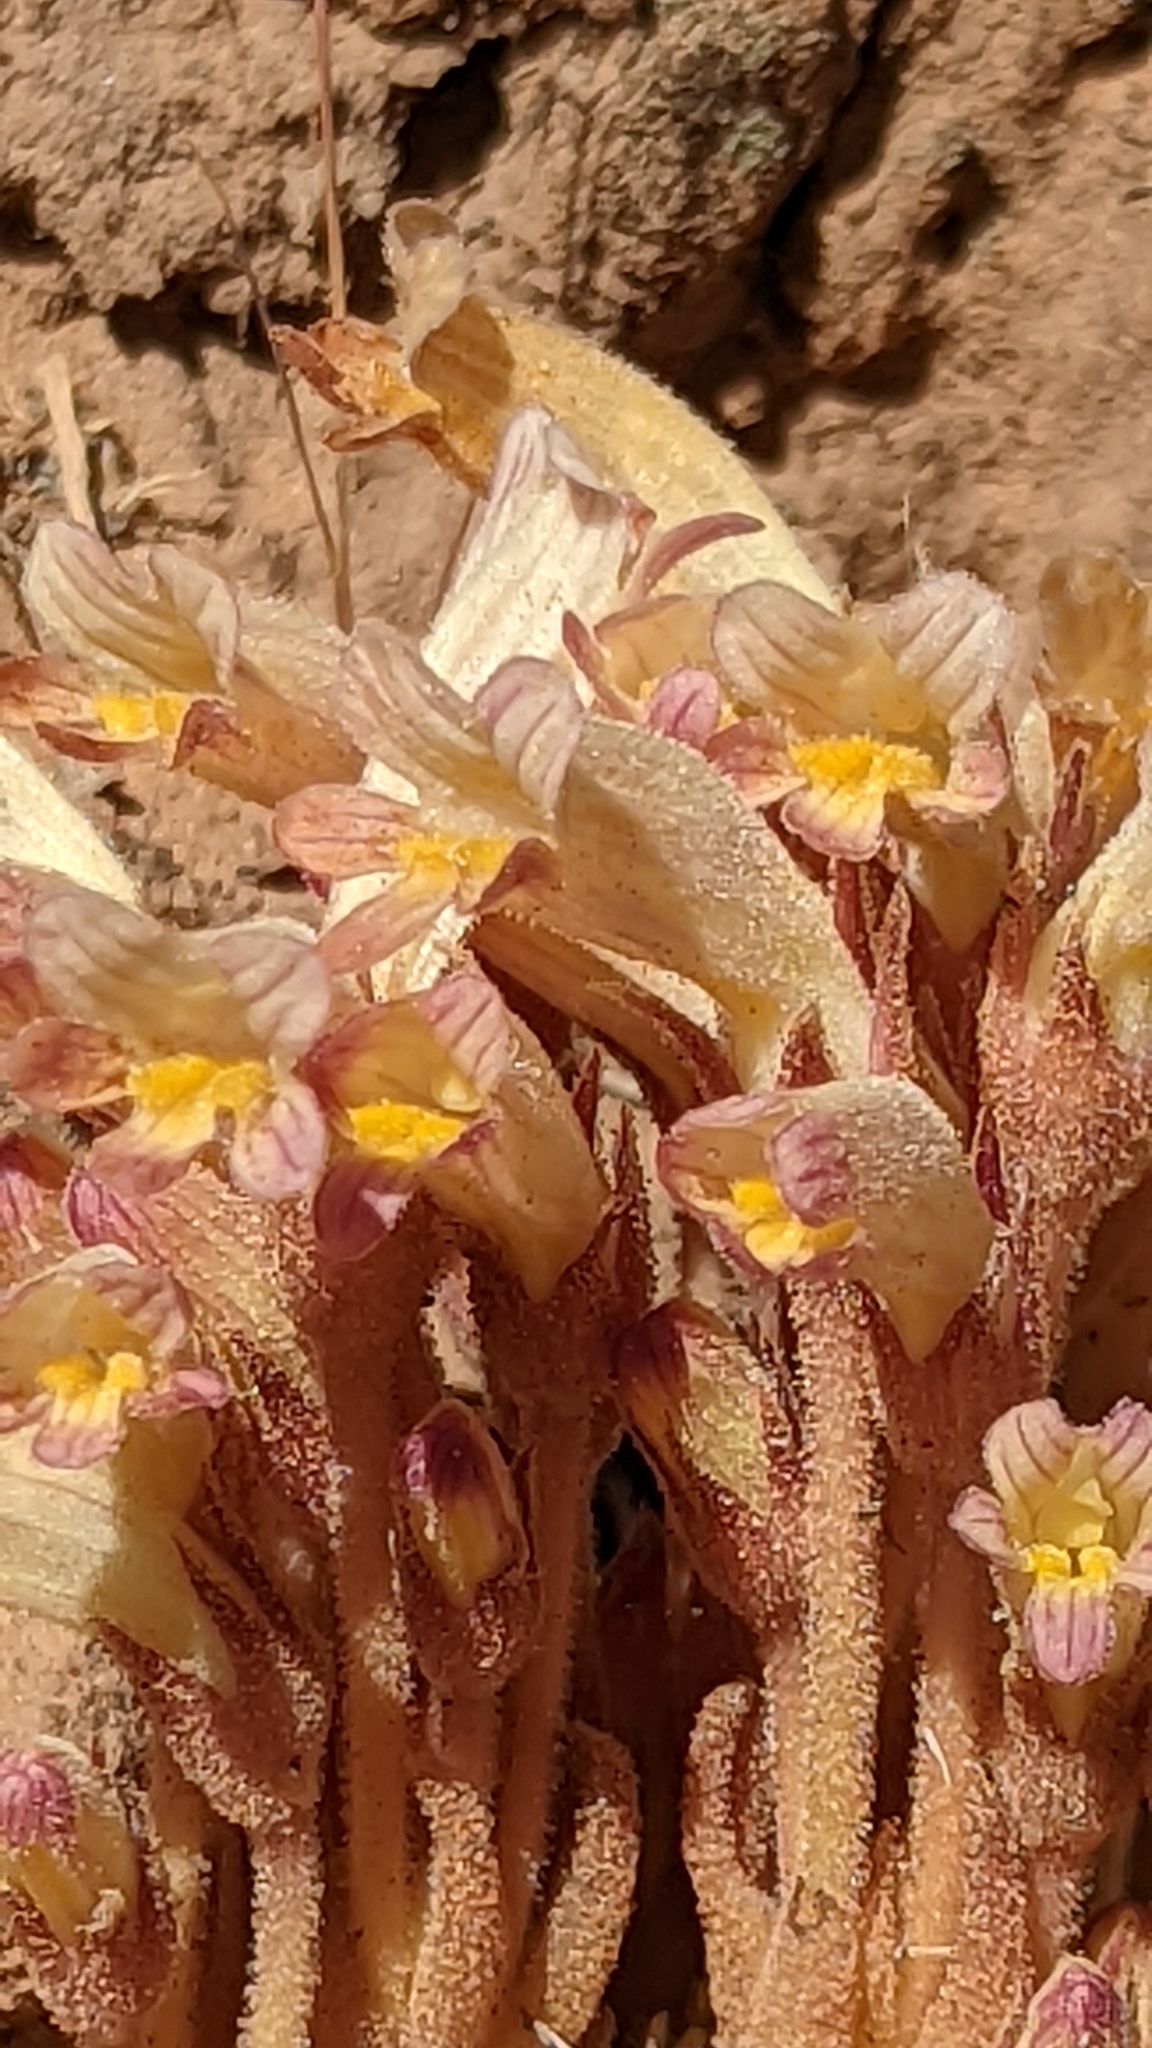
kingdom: Plantae
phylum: Tracheophyta
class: Magnoliopsida
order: Lamiales
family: Orobanchaceae
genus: Aphyllon
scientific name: Aphyllon fasciculatum
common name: Clustered broomrape
